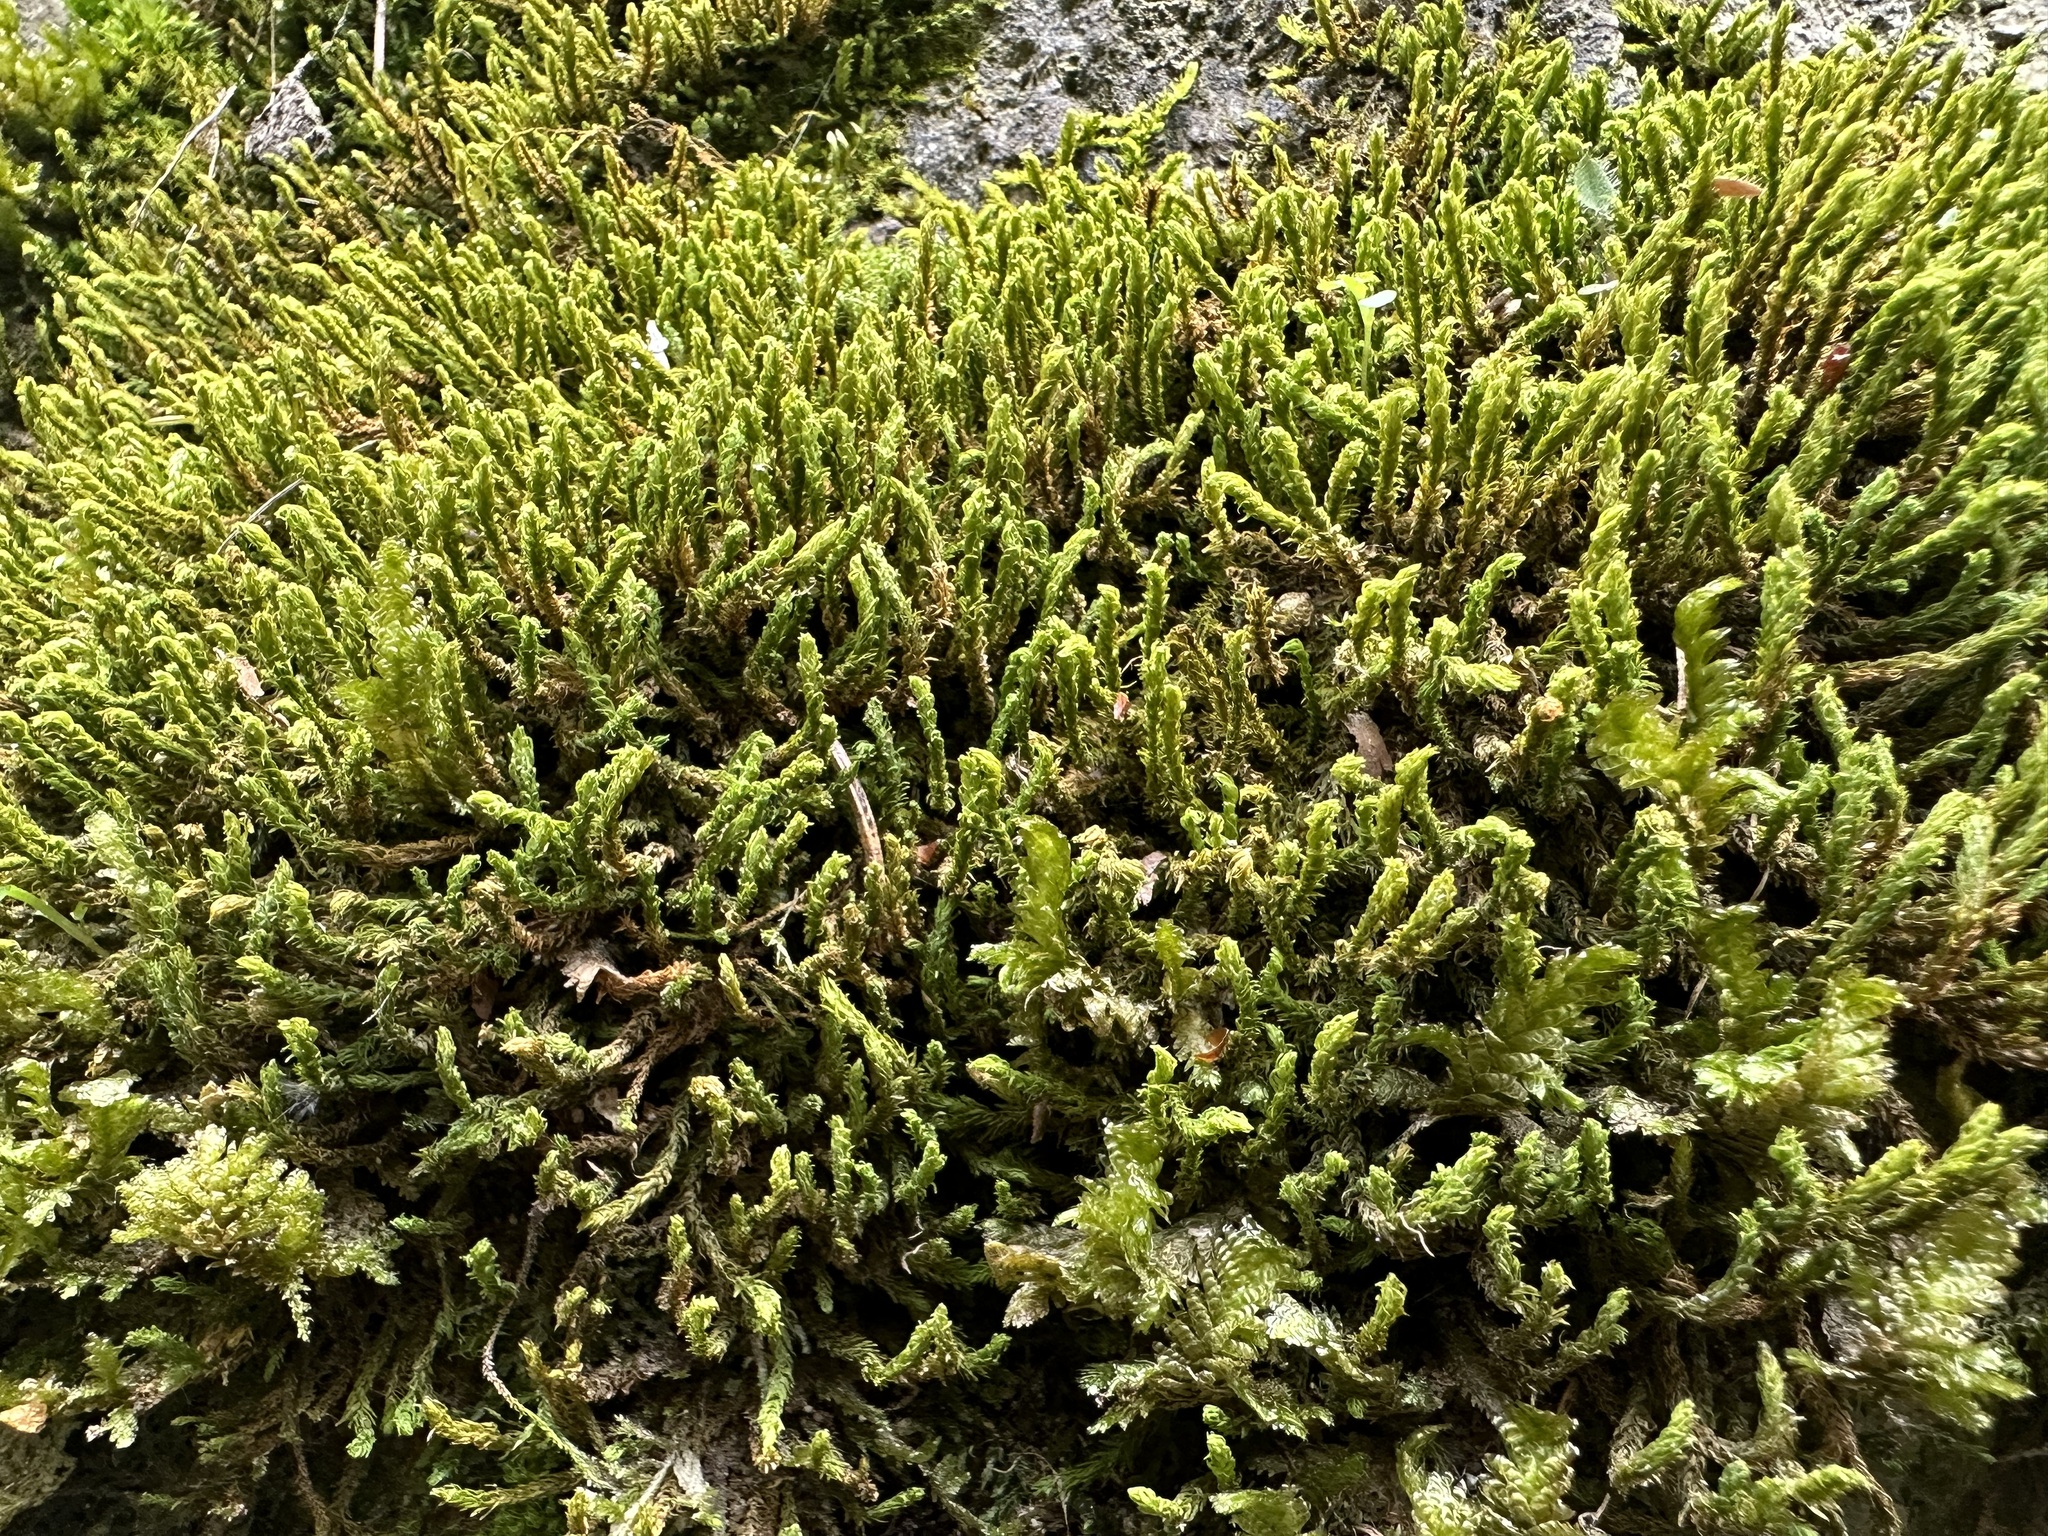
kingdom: Plantae
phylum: Bryophyta
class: Bryopsida
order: Hypnales
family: Anomodontaceae
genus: Anomodon
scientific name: Anomodon viticulosus
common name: Tall anomodon
